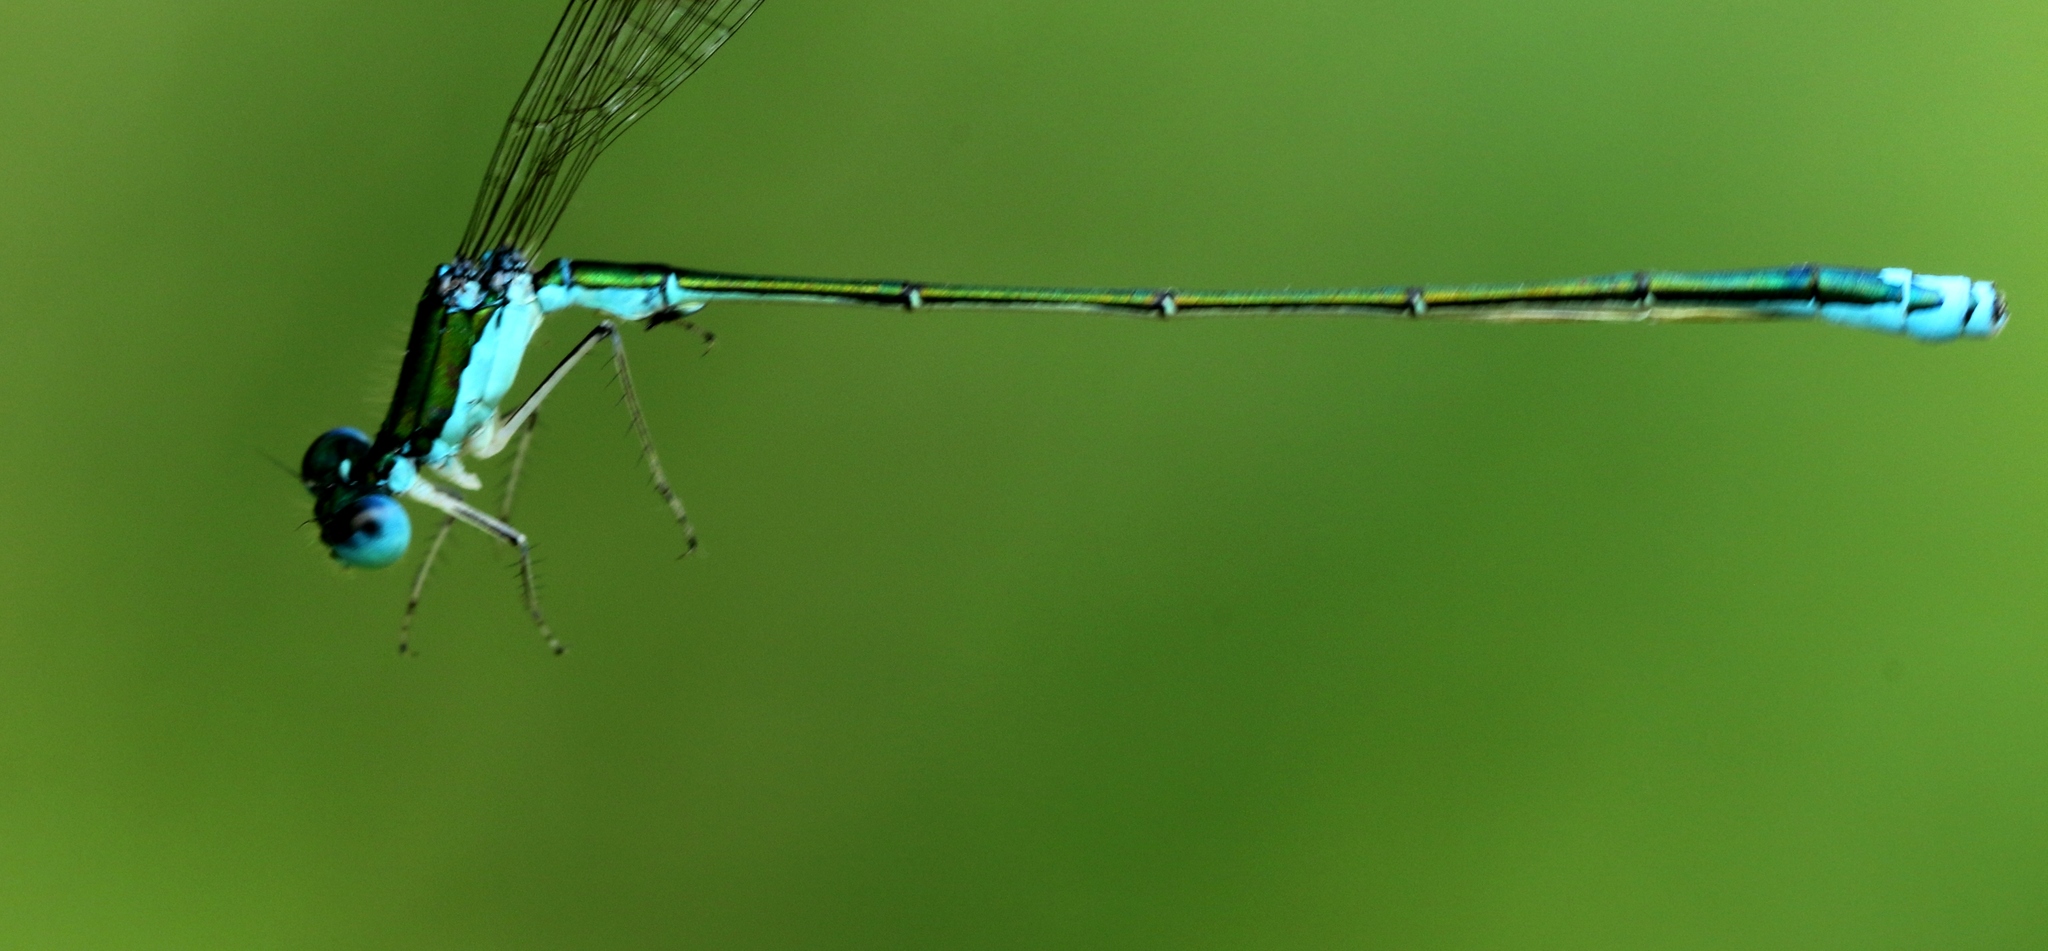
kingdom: Animalia
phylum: Arthropoda
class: Insecta
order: Odonata
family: Coenagrionidae
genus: Nehalennia
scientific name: Nehalennia irene
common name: Sedge sprite
